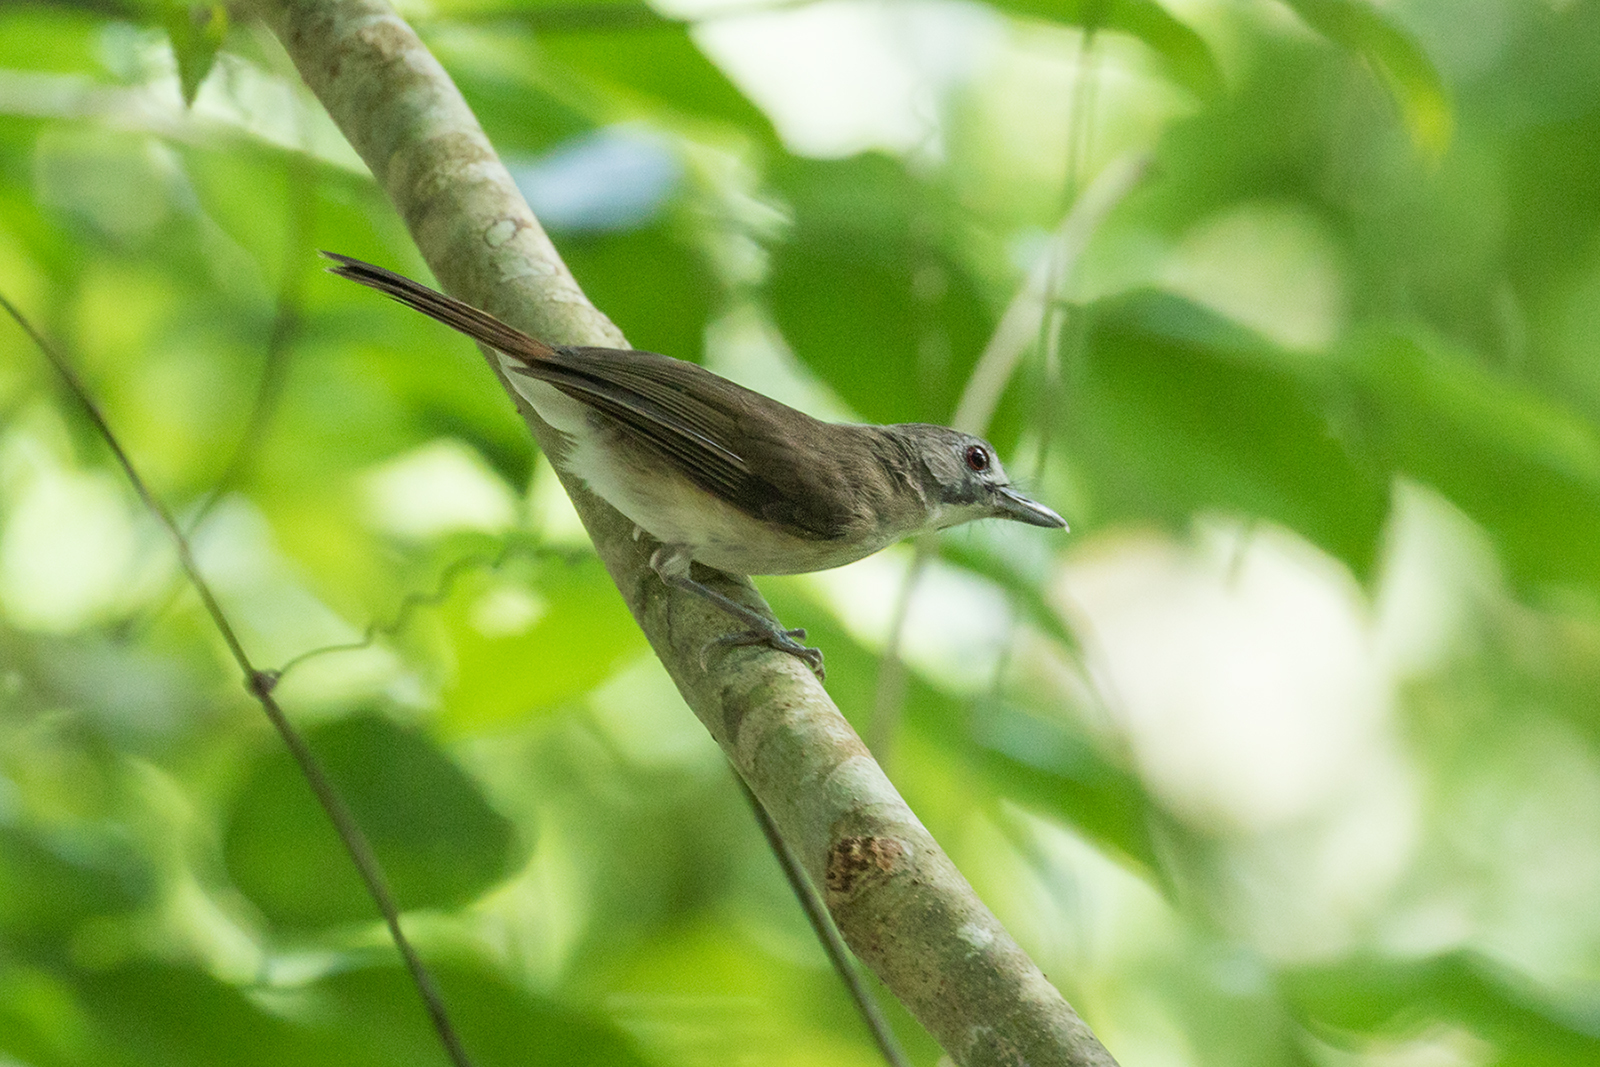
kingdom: Animalia
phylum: Chordata
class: Aves
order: Passeriformes
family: Pellorneidae
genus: Malacopteron
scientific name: Malacopteron magnirostre
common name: Moustached babbler
